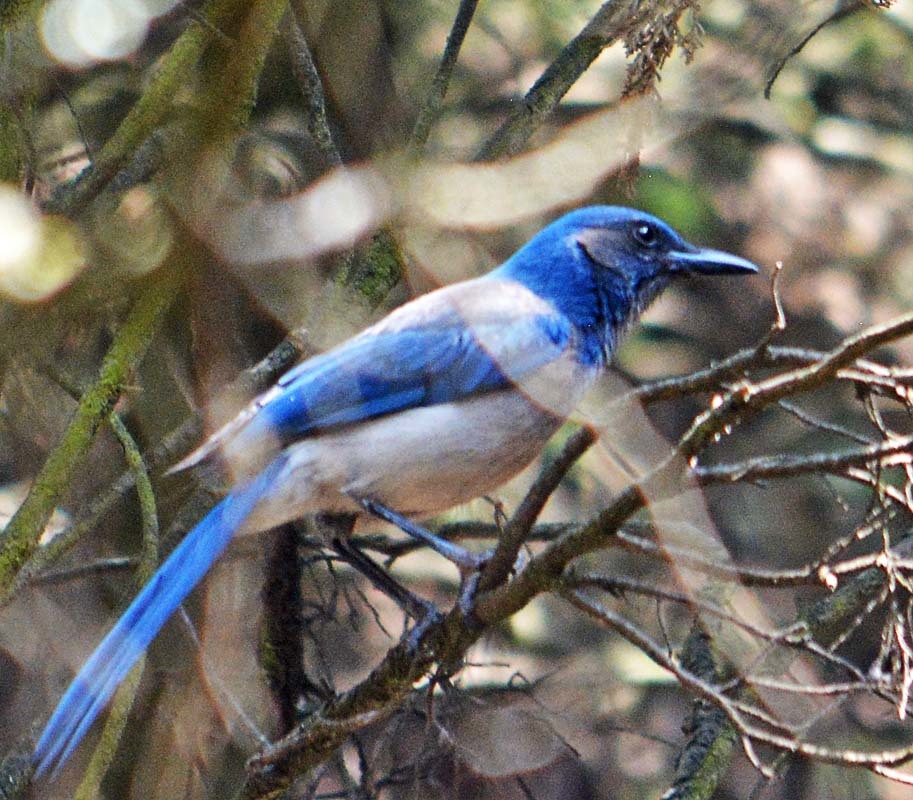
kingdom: Animalia
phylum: Chordata
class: Aves
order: Passeriformes
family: Corvidae
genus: Aphelocoma
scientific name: Aphelocoma woodhouseii
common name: Woodhouse's scrub-jay
